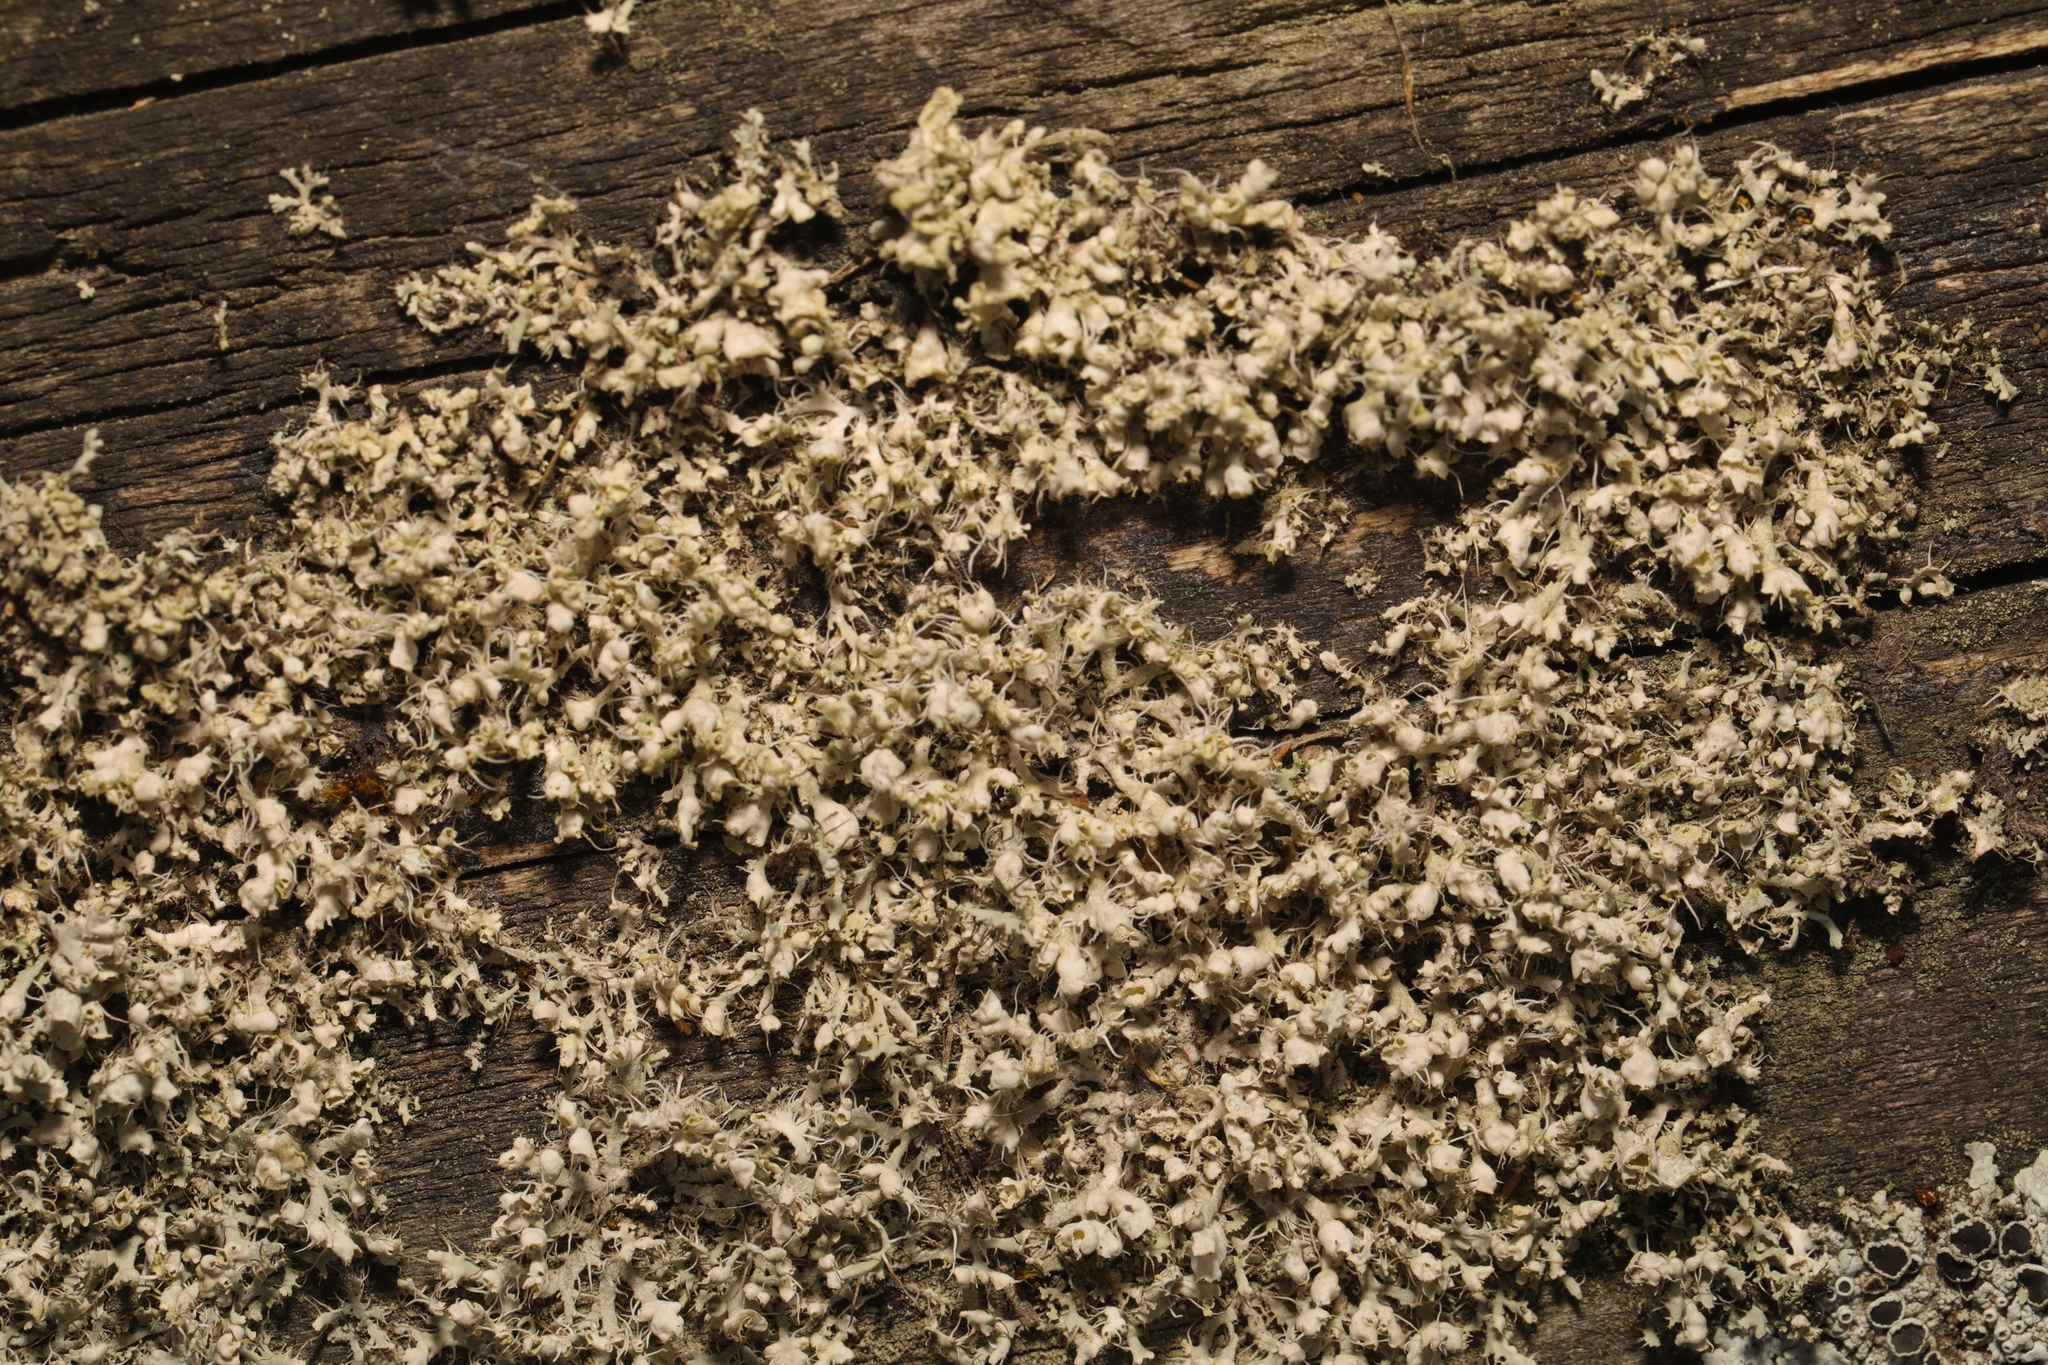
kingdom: Fungi
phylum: Ascomycota
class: Lecanoromycetes
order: Caliciales
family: Physciaceae
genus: Physcia
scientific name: Physcia adscendens
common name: Hooded rosette lichen
